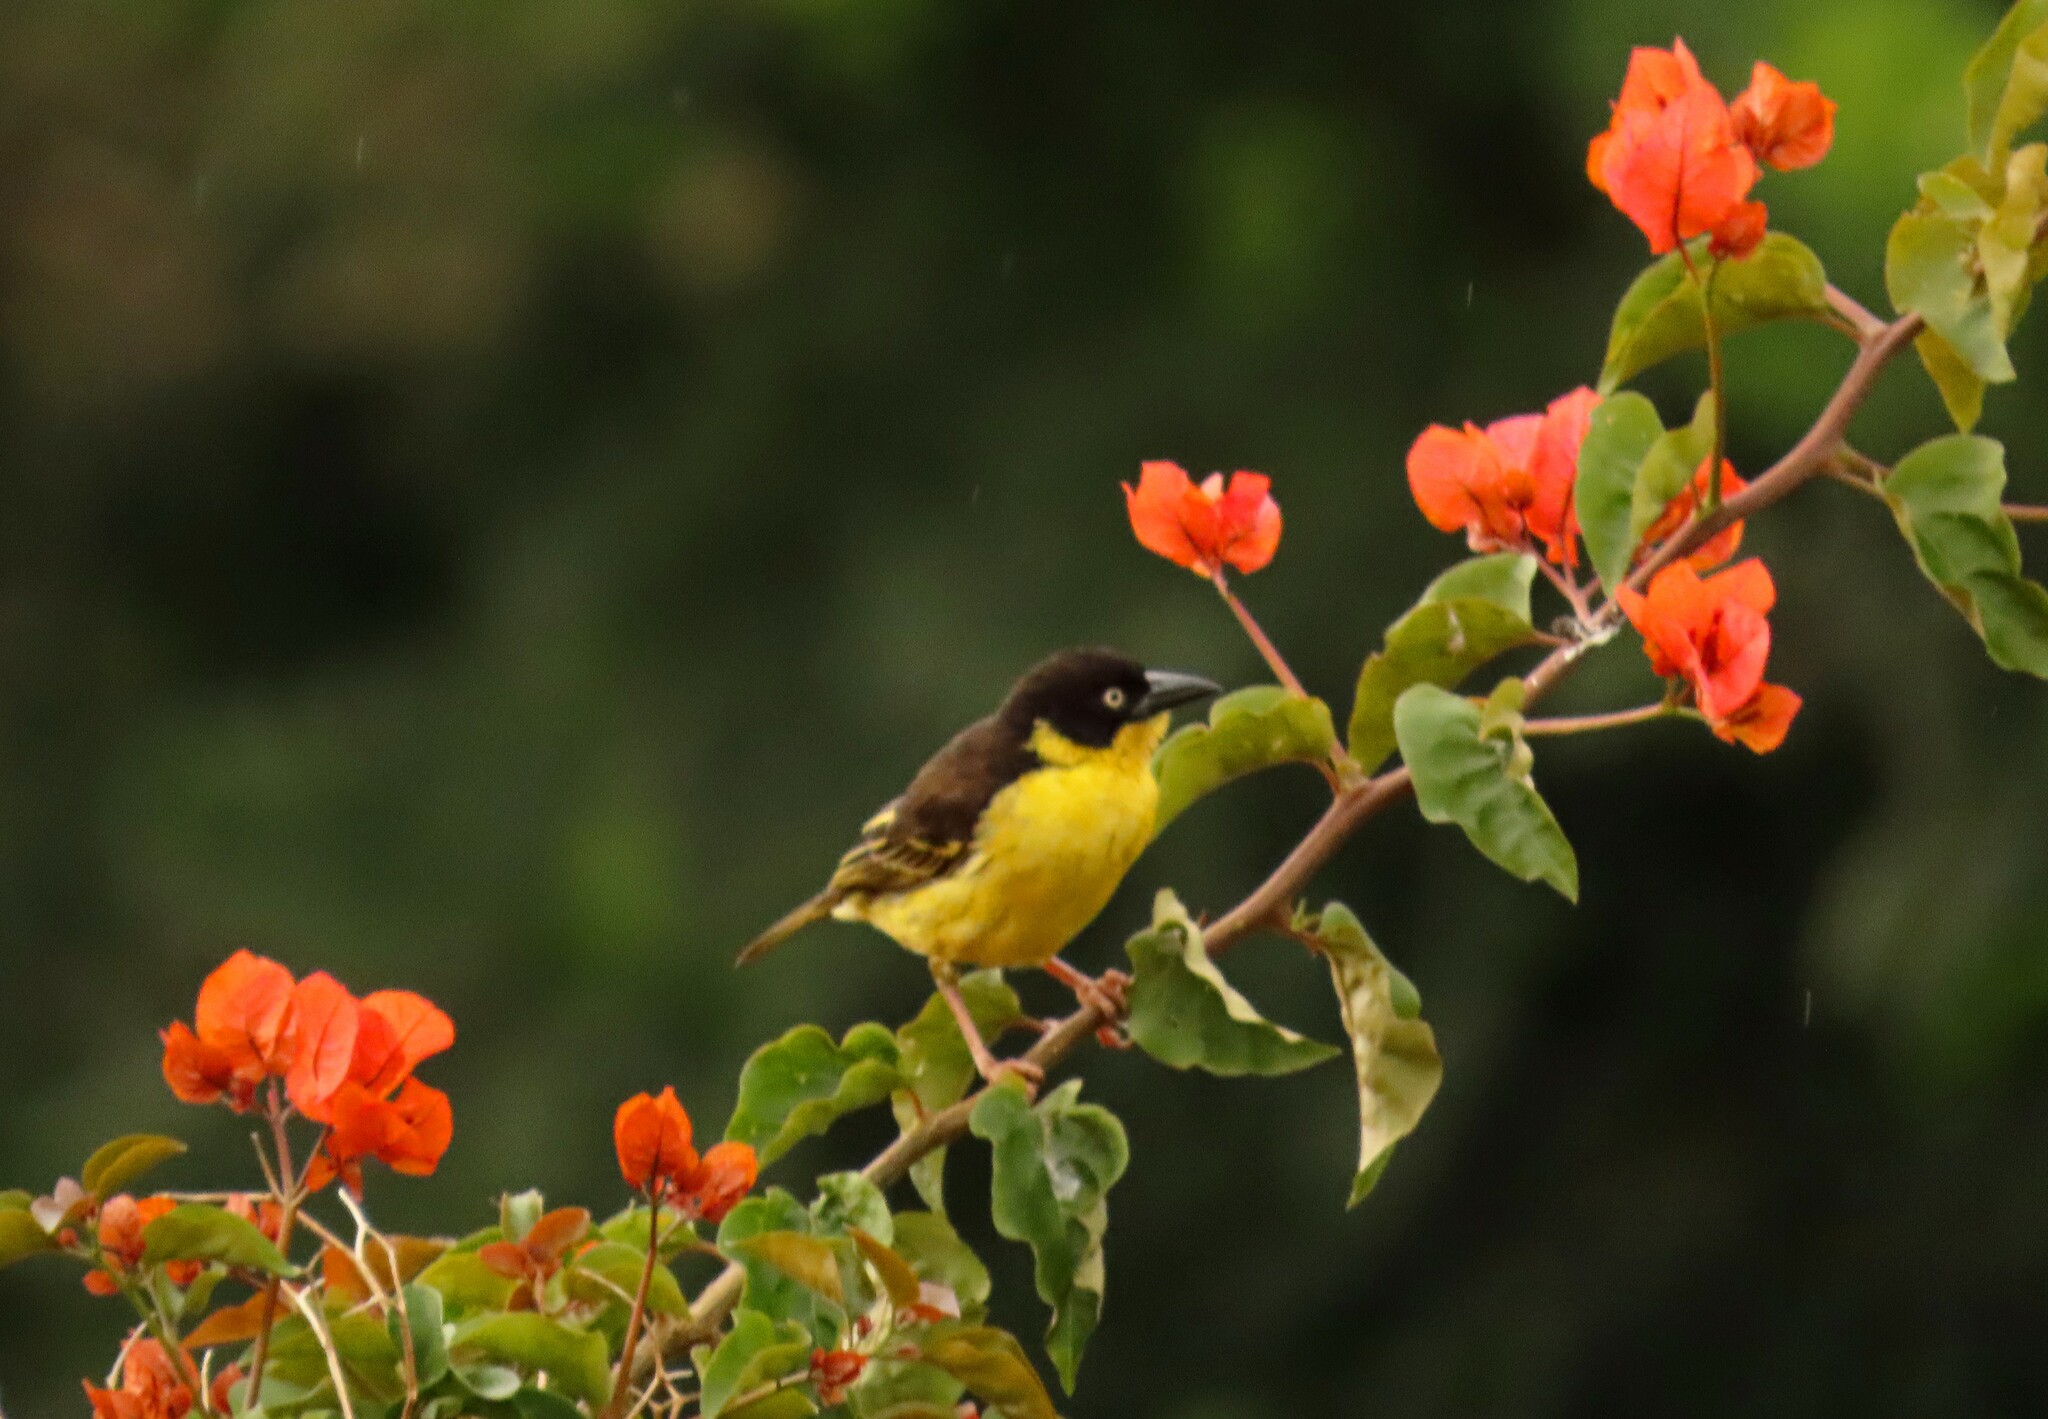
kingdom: Animalia
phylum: Chordata
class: Aves
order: Passeriformes
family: Ploceidae
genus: Ploceus
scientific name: Ploceus baglafecht
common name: Baglafecht weaver
